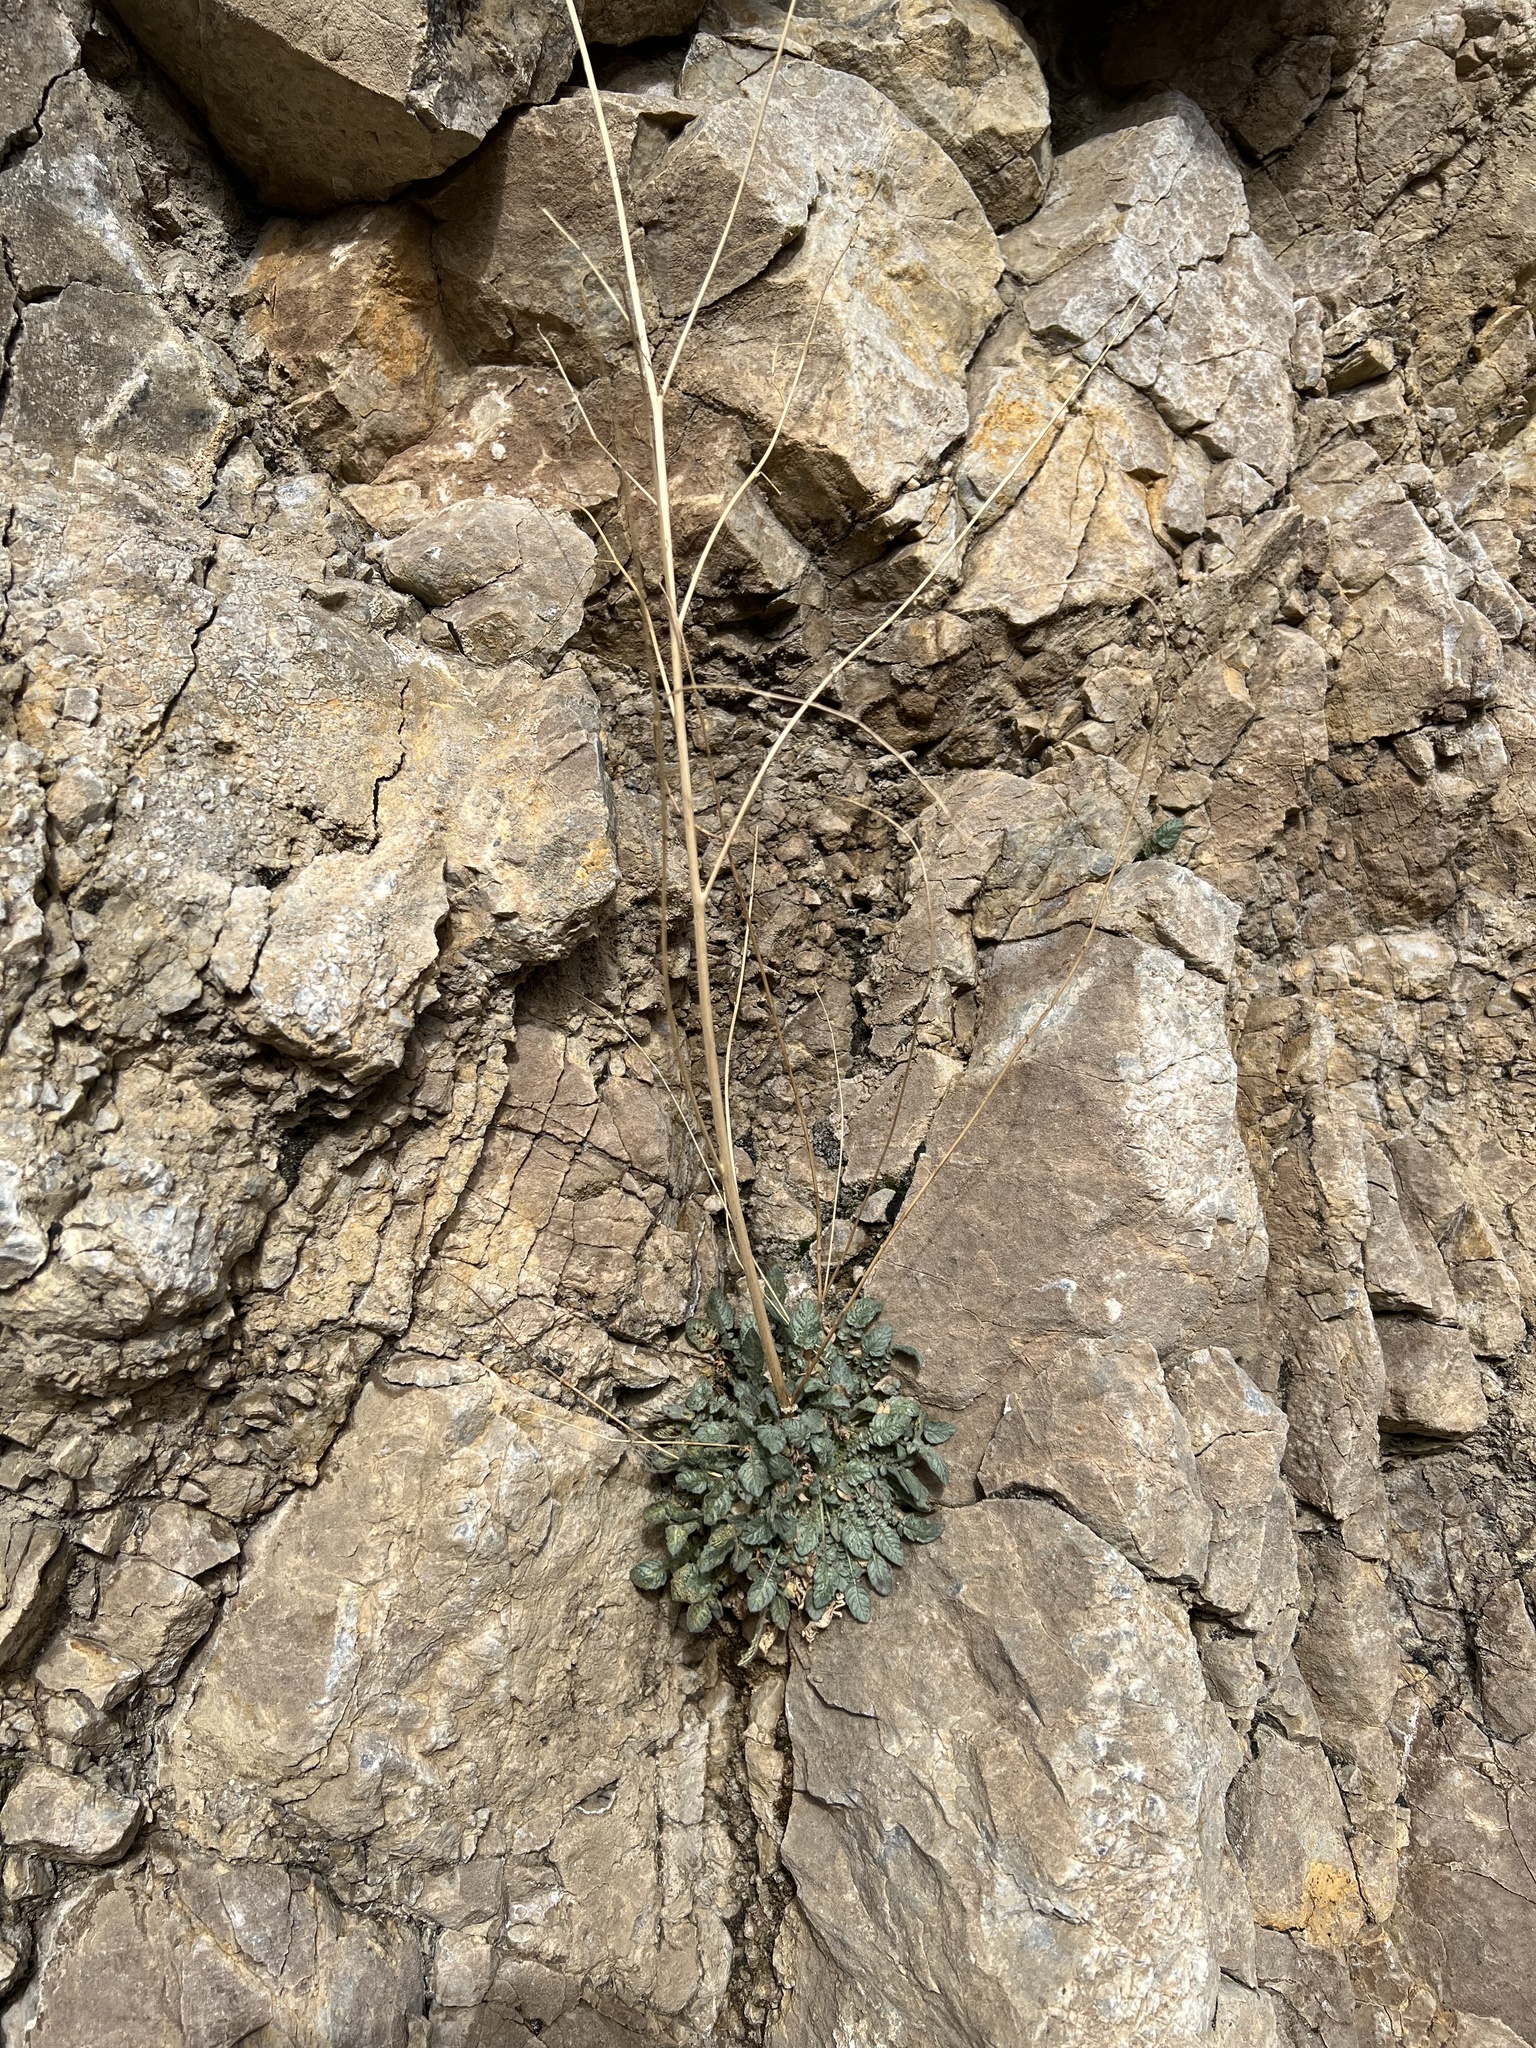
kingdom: Plantae
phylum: Tracheophyta
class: Magnoliopsida
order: Myrtales
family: Onagraceae
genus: Chylismia
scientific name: Chylismia walkeri
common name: Walker's suncup
